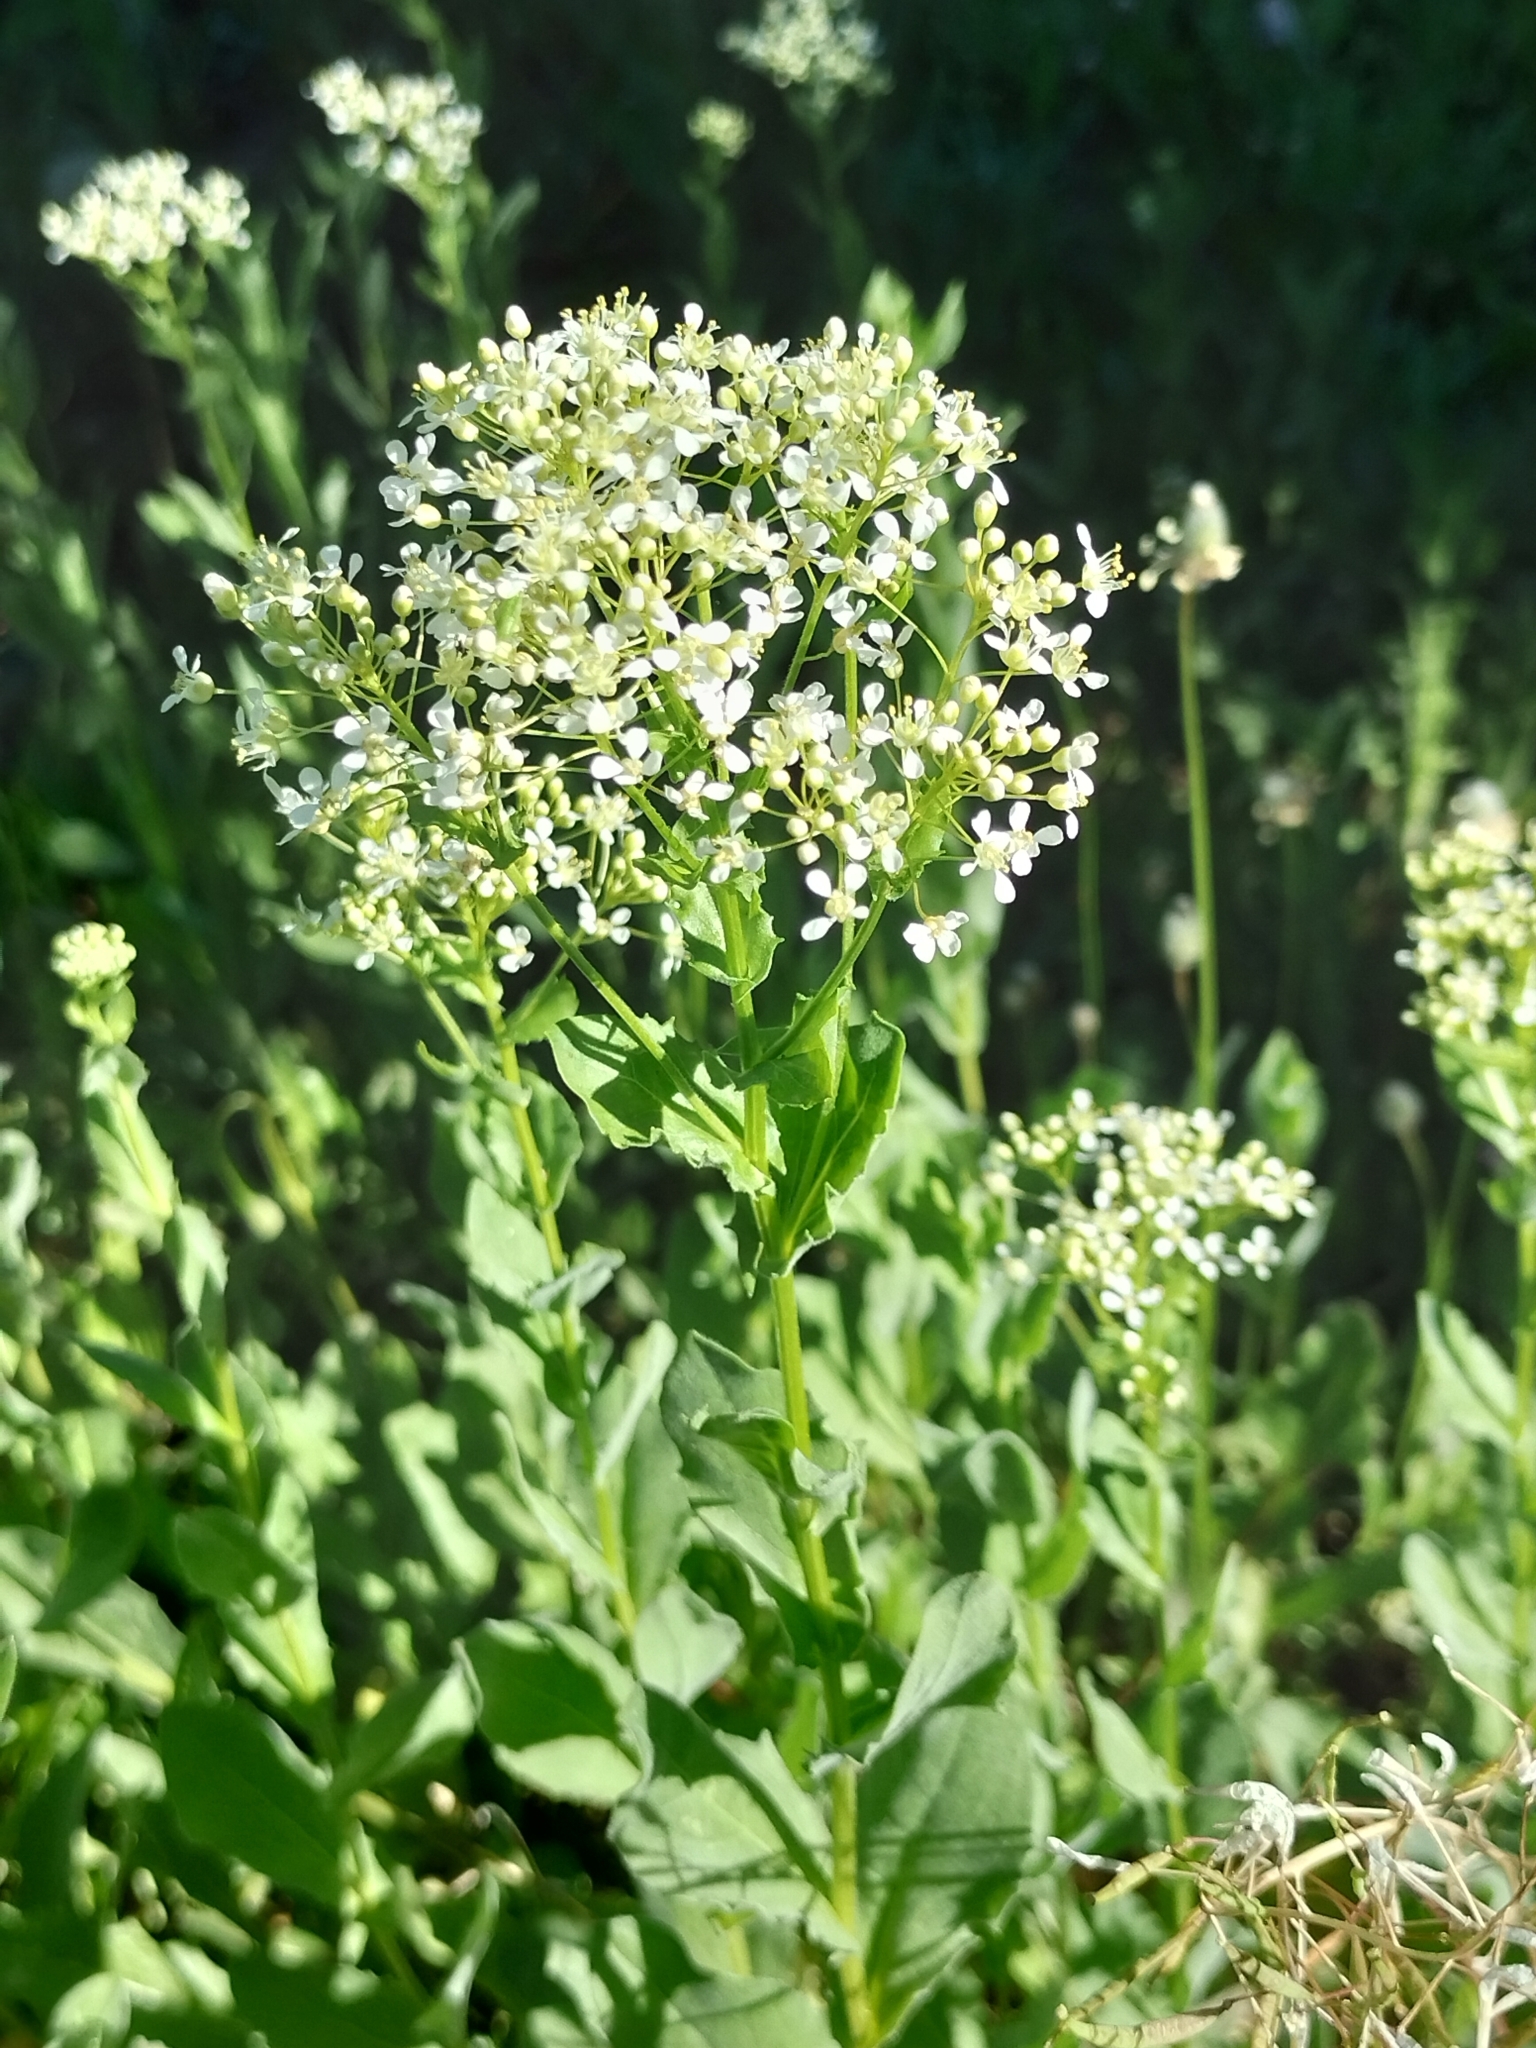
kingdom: Plantae
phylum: Tracheophyta
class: Magnoliopsida
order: Brassicales
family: Brassicaceae
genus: Lepidium
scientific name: Lepidium draba
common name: Hoary cress
